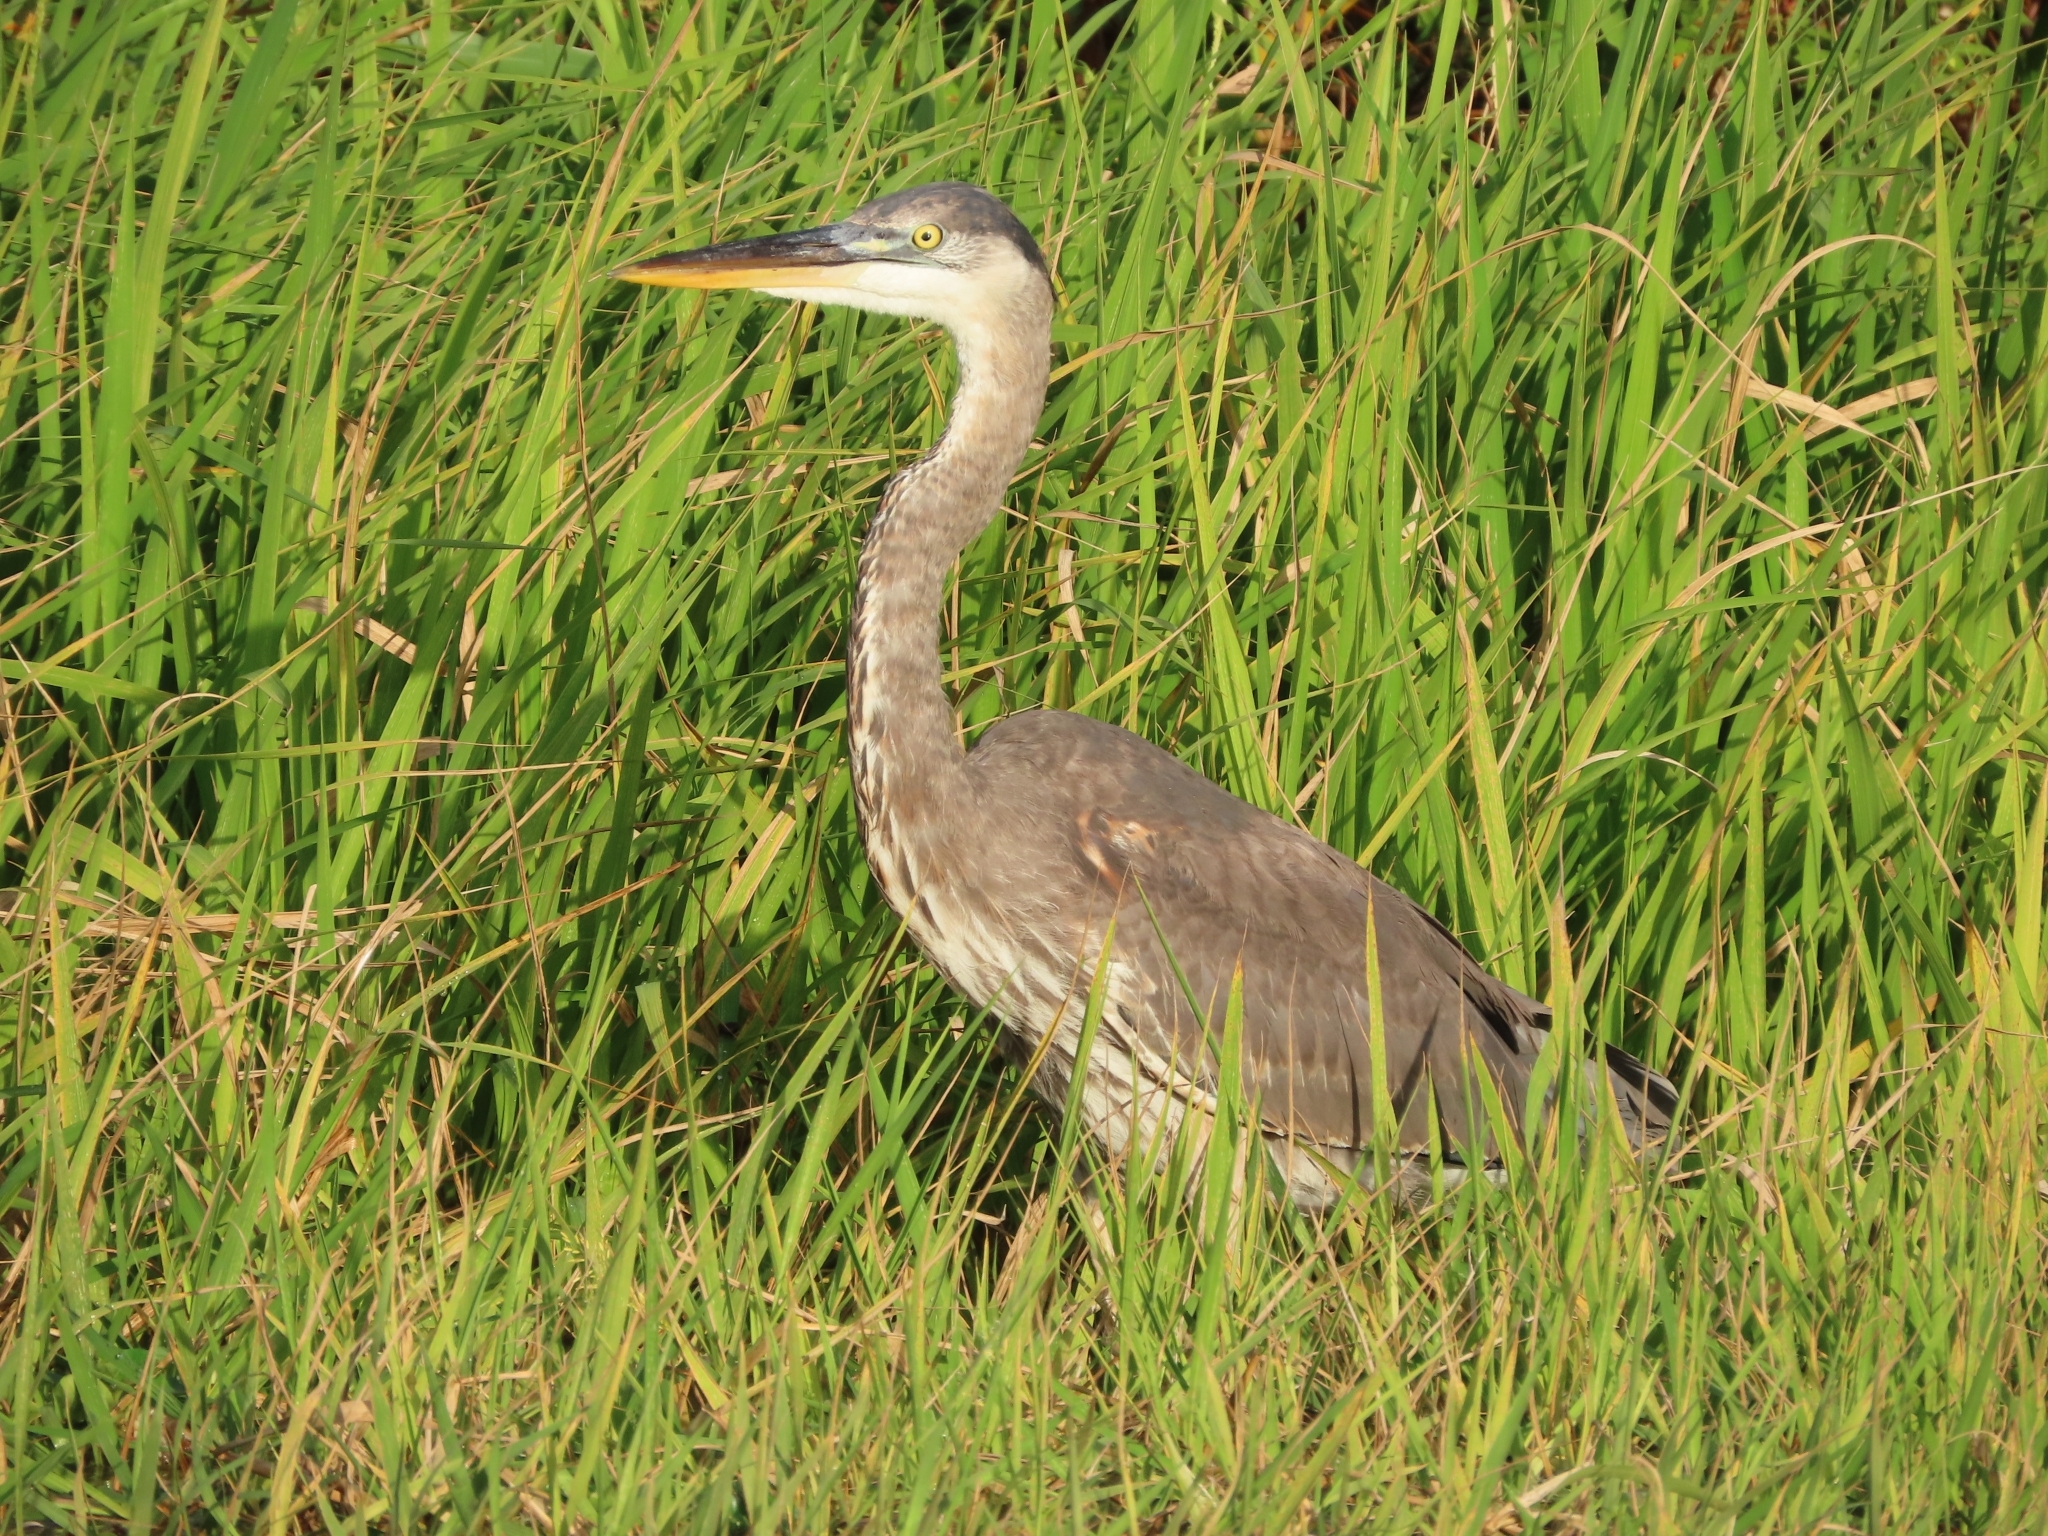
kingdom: Animalia
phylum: Chordata
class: Aves
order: Pelecaniformes
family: Ardeidae
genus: Ardea
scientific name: Ardea herodias
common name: Great blue heron
